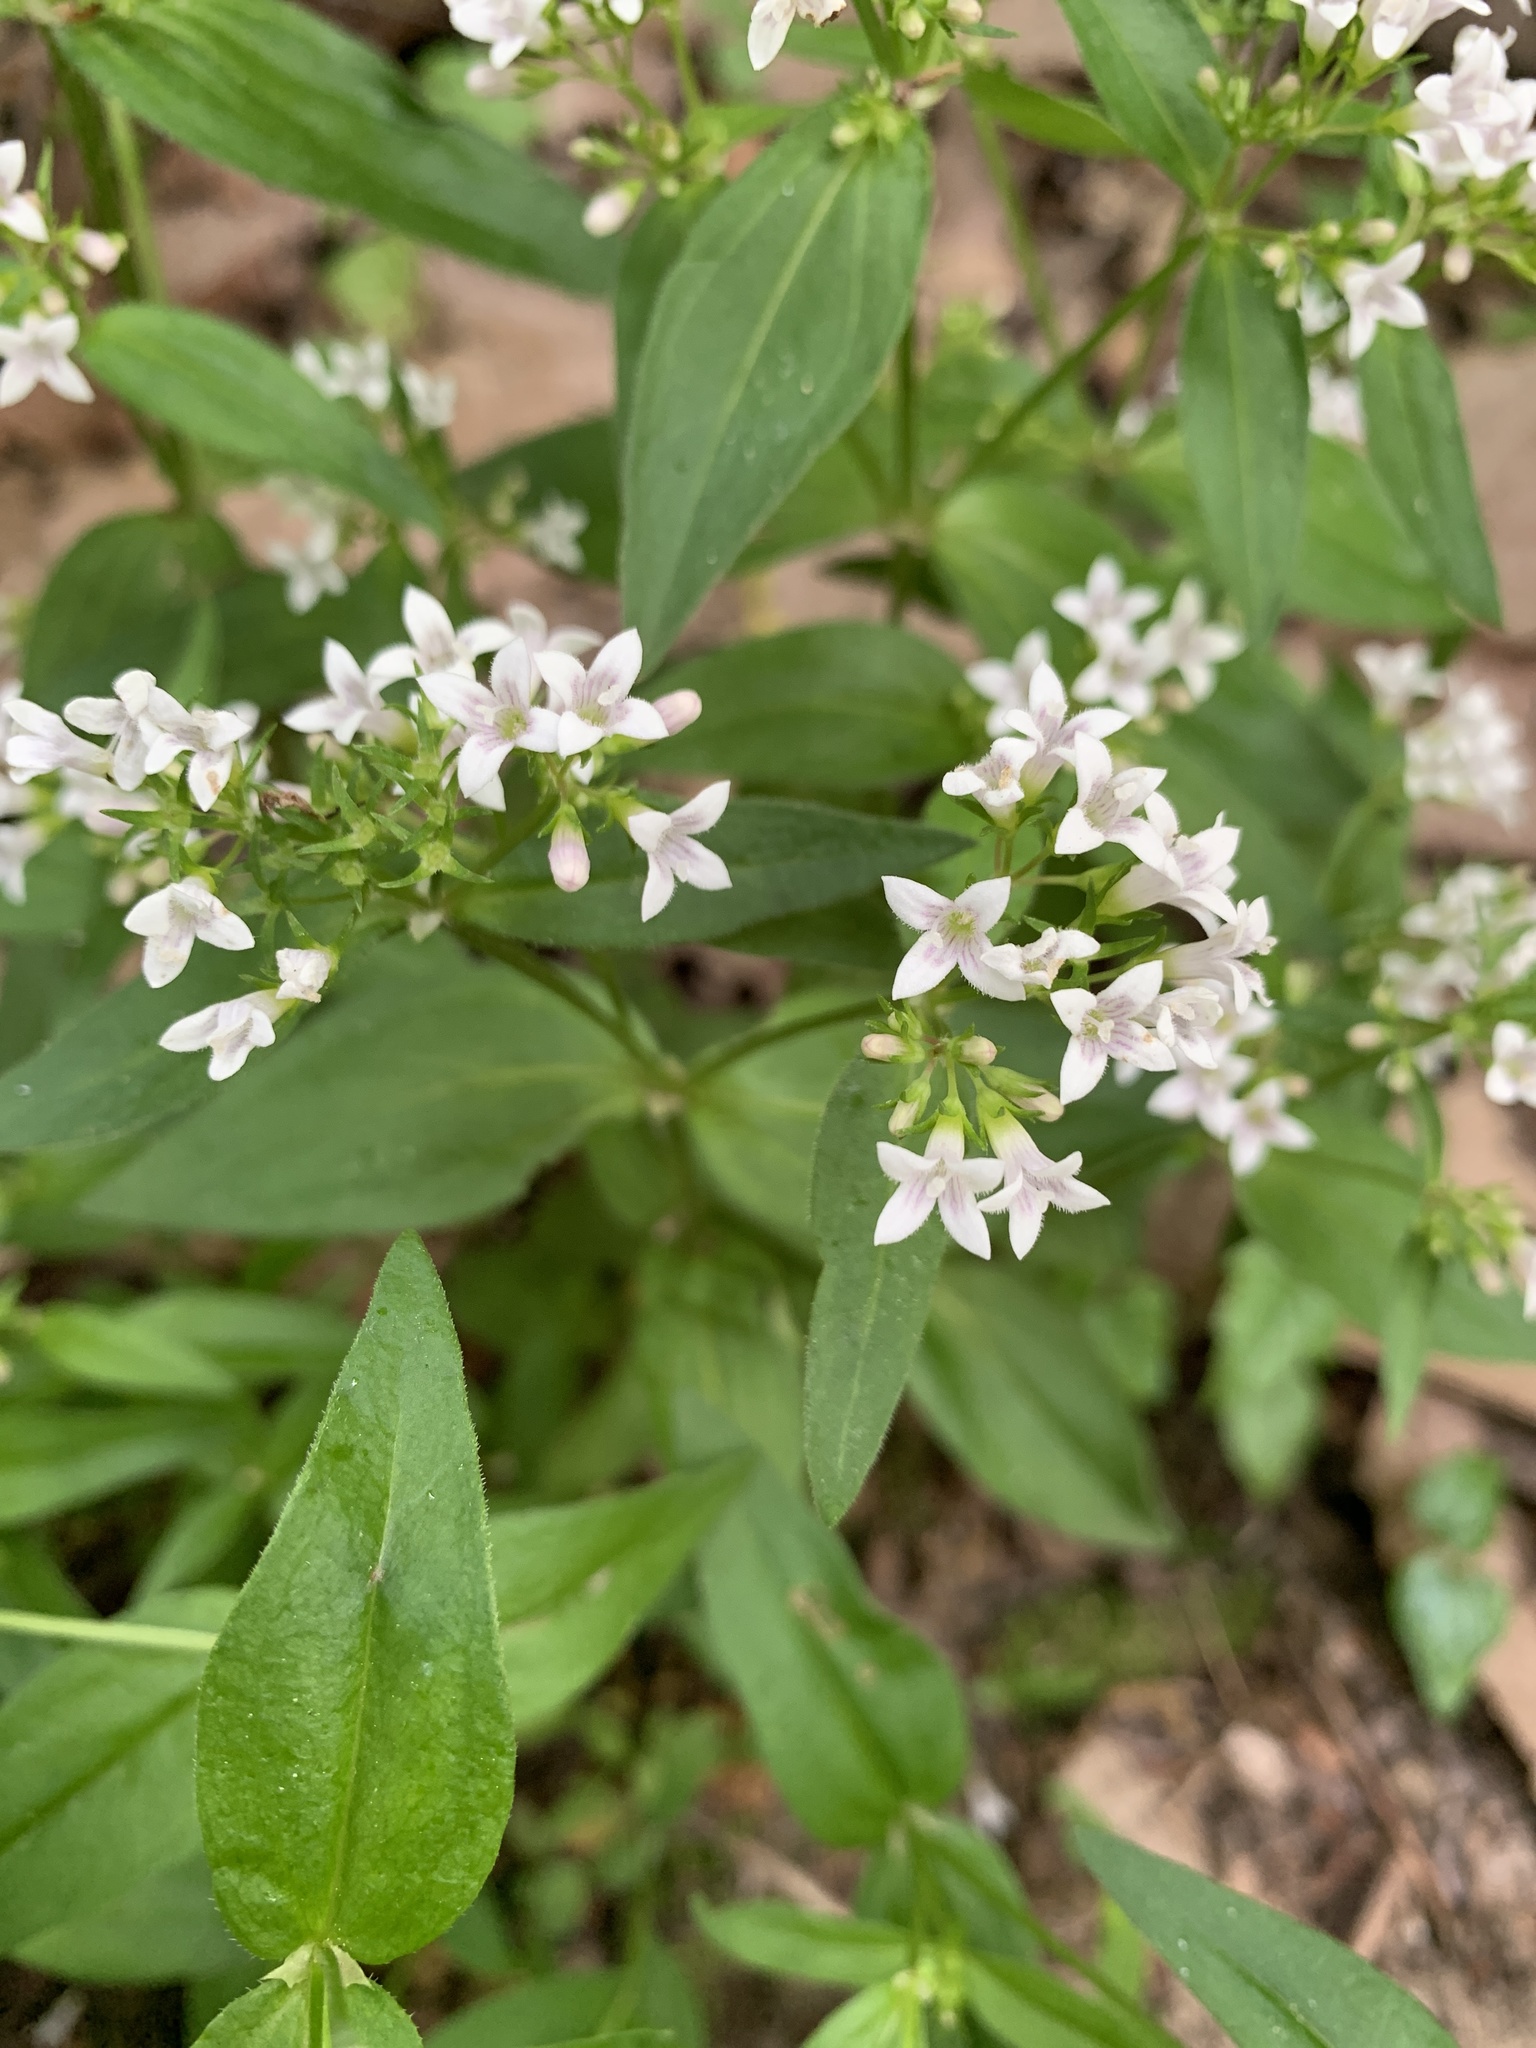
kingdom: Plantae
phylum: Tracheophyta
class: Magnoliopsida
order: Gentianales
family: Rubiaceae
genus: Houstonia
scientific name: Houstonia purpurea
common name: Summer bluet
